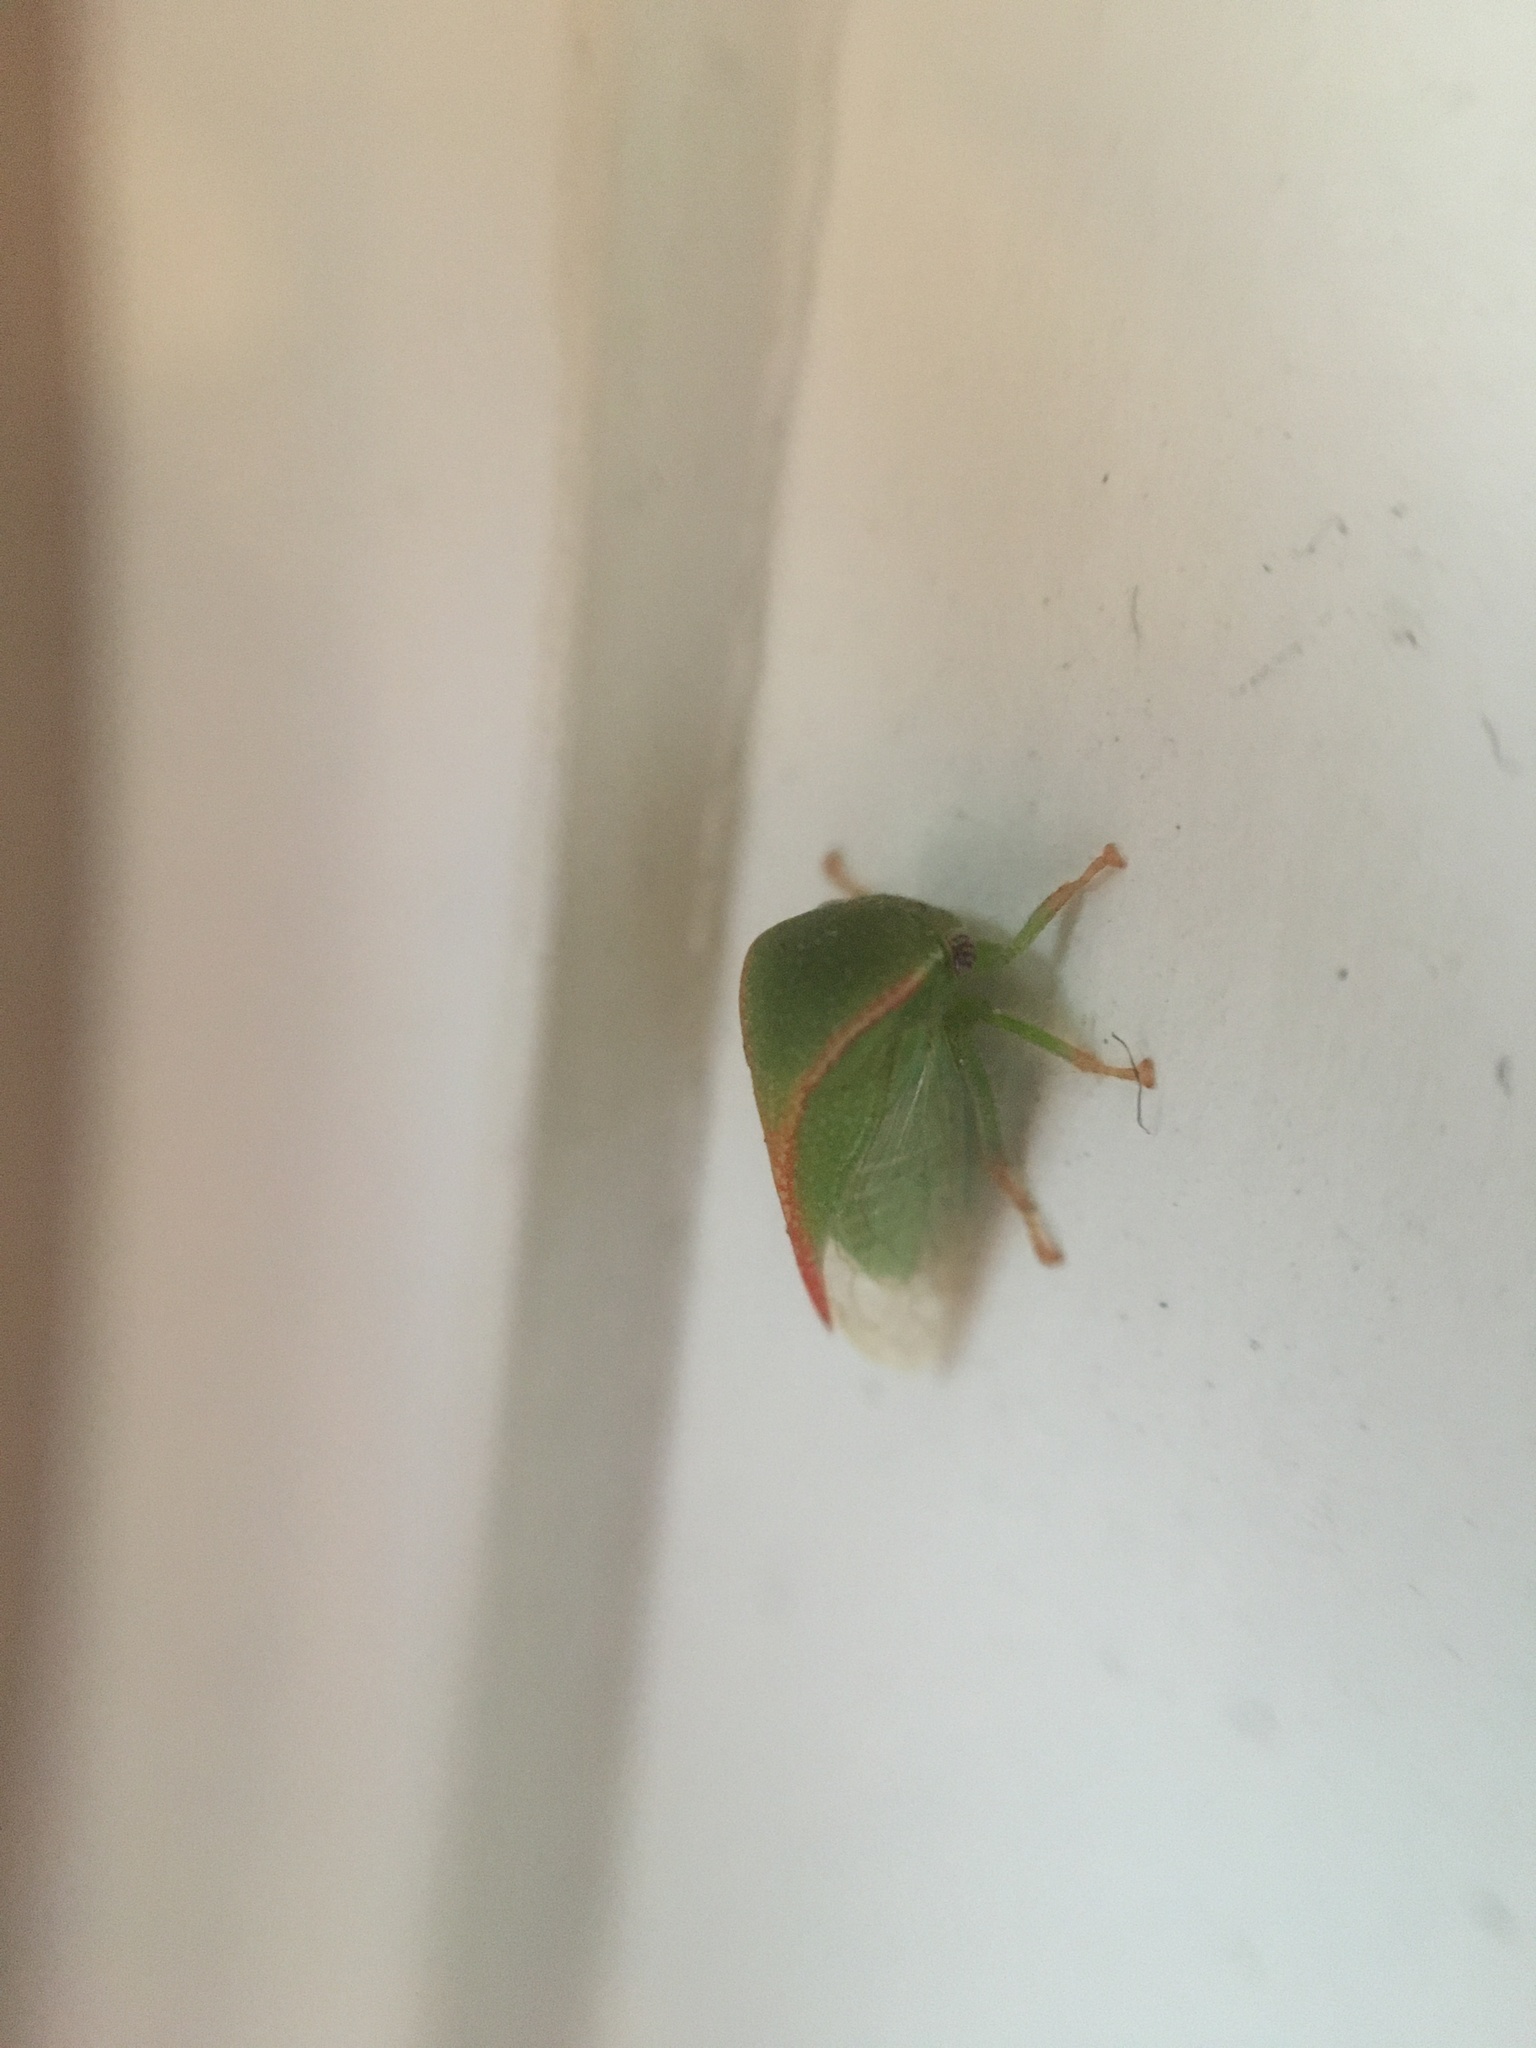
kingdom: Animalia
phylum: Arthropoda
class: Insecta
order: Hemiptera
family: Membracidae
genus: Spissistilus
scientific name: Spissistilus festina
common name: Membracid bug
